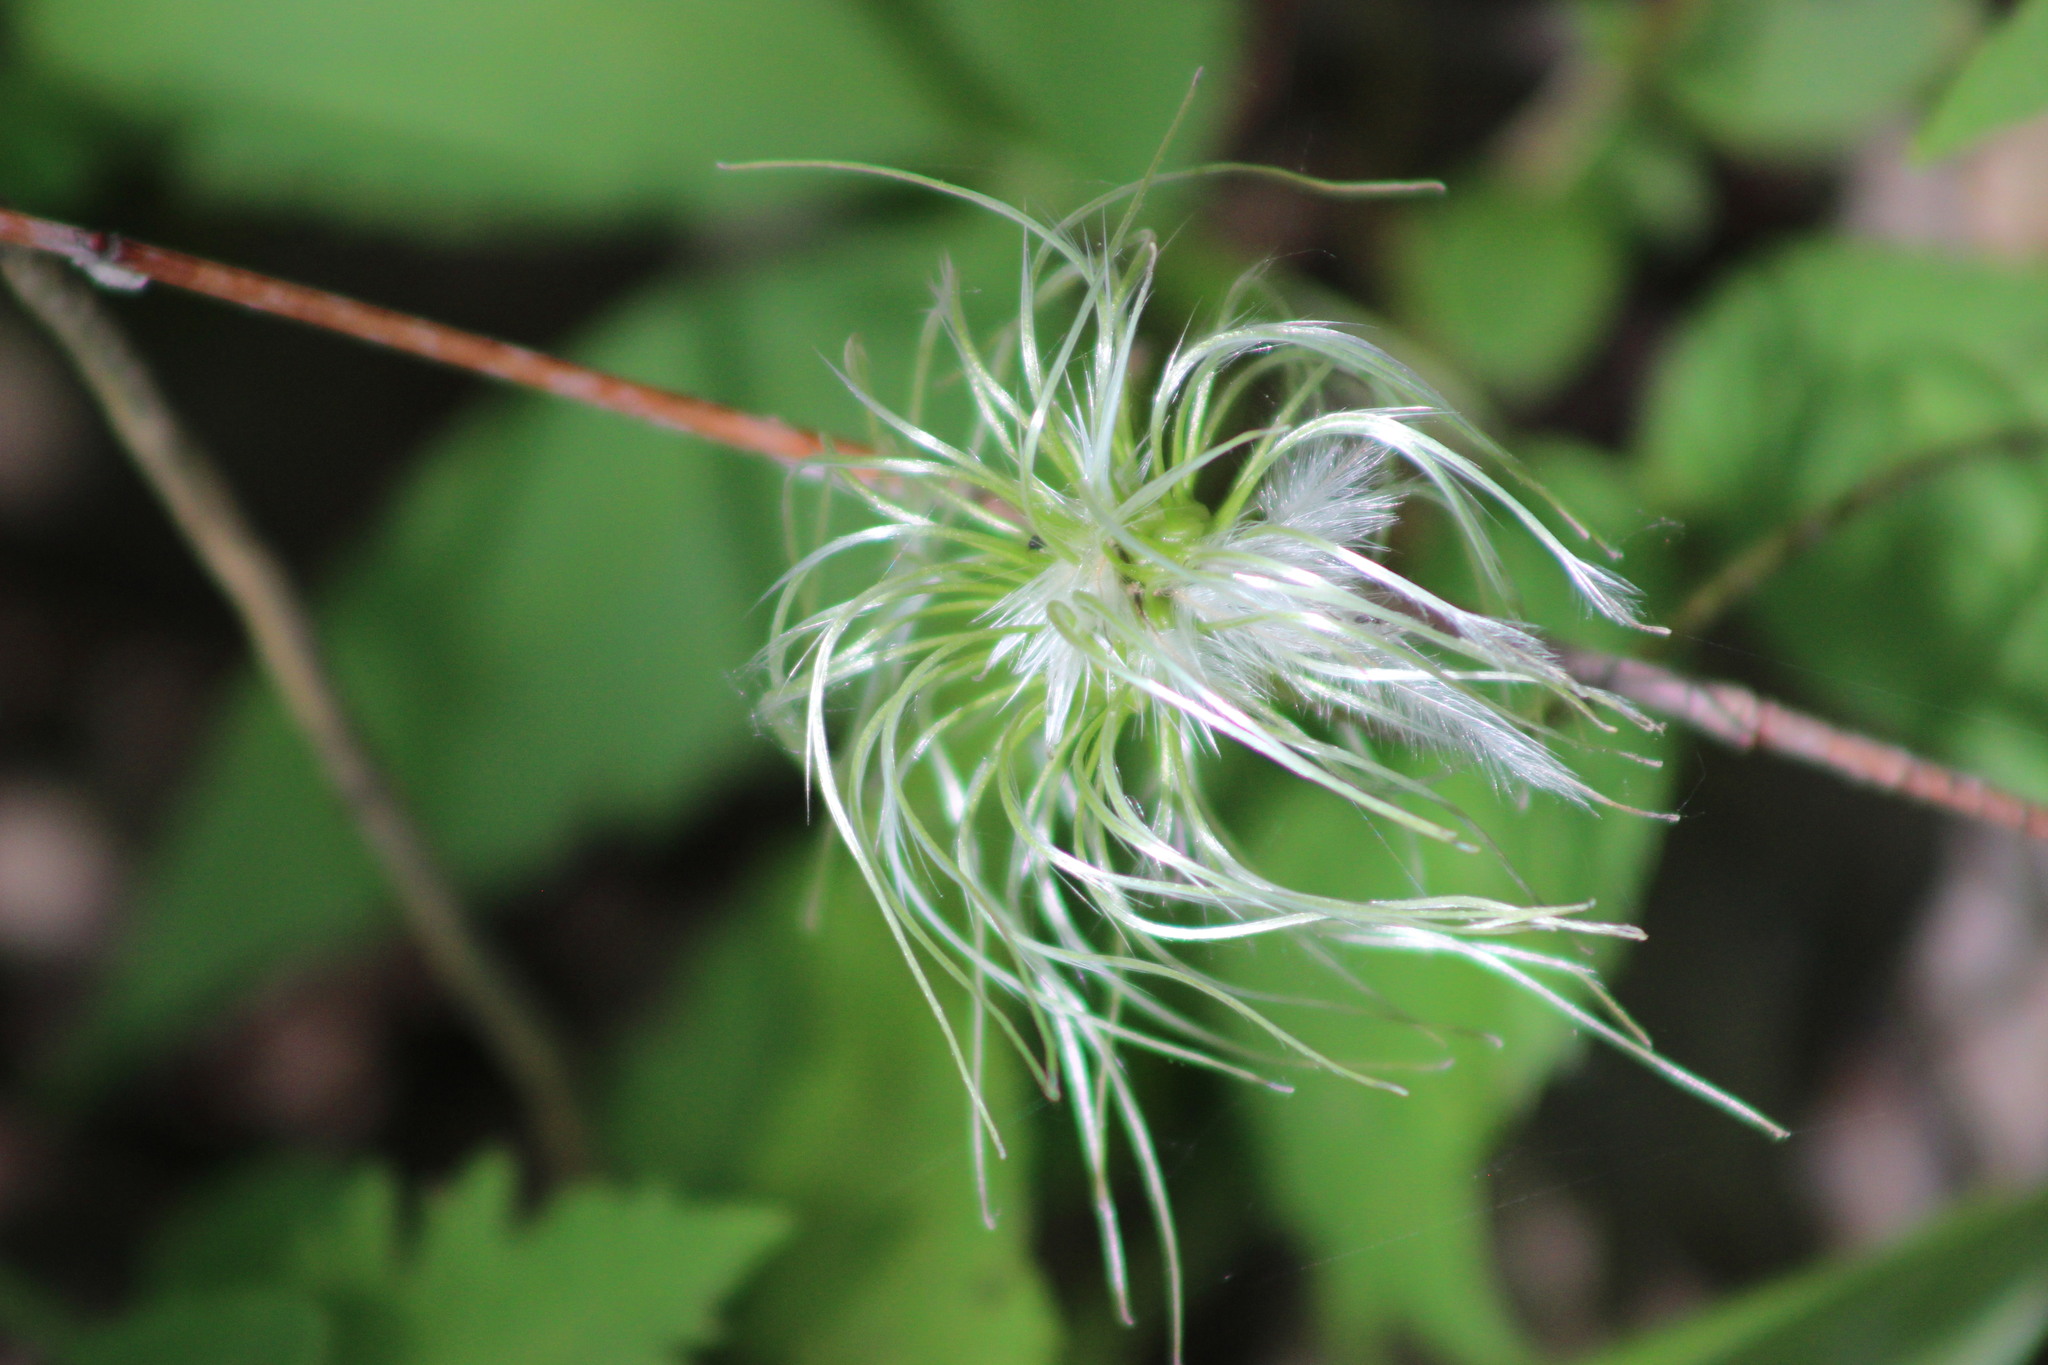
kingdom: Plantae
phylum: Tracheophyta
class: Magnoliopsida
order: Ranunculales
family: Ranunculaceae
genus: Clematis
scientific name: Clematis sibirica
